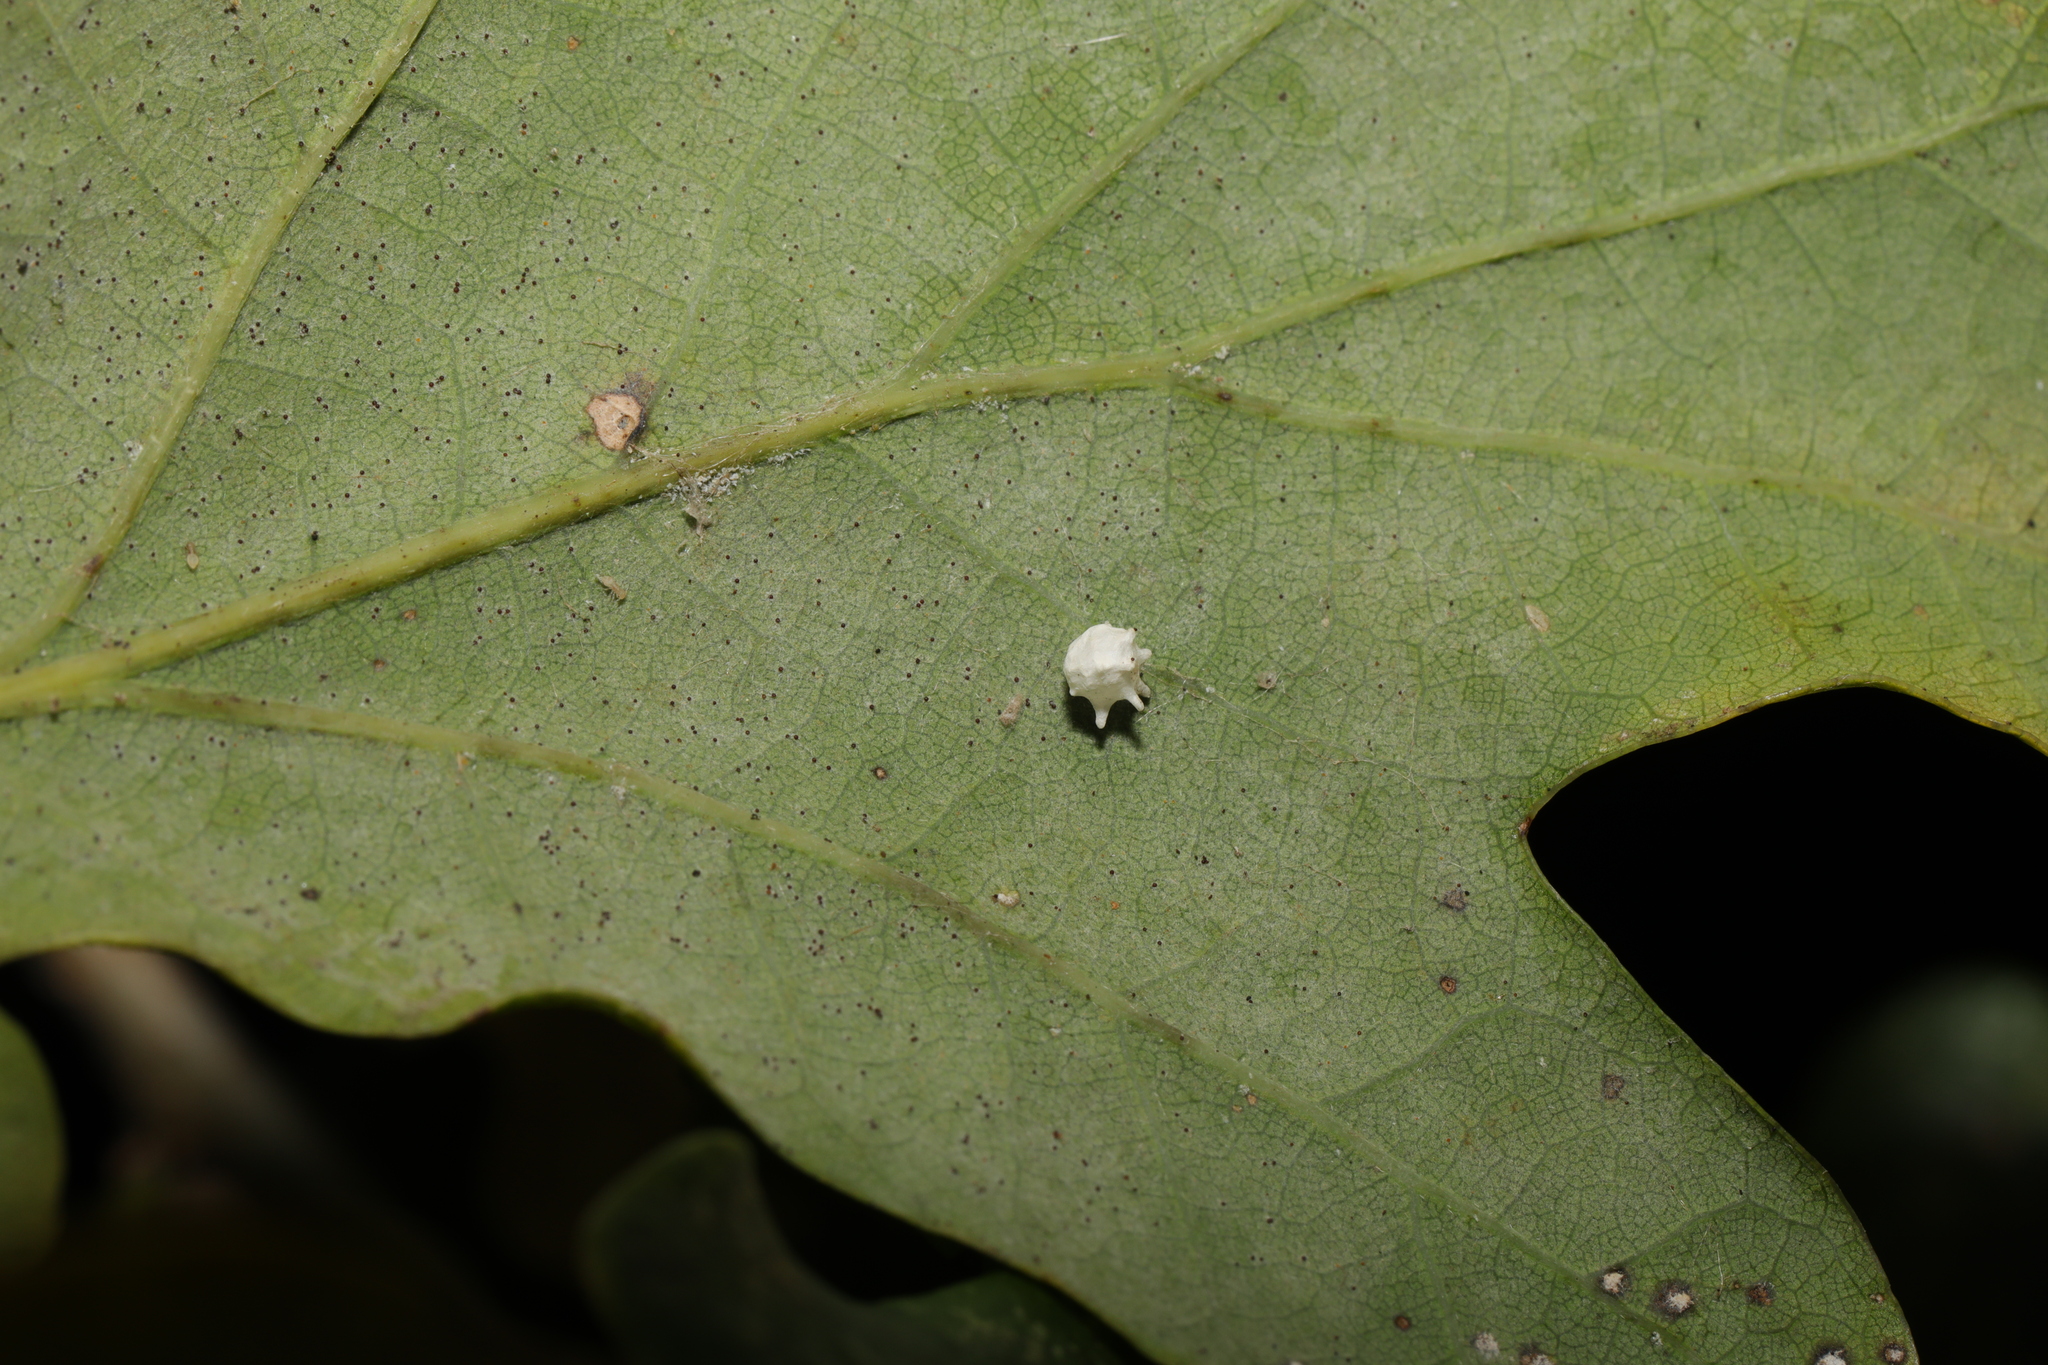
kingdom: Animalia
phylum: Arthropoda
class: Arachnida
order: Araneae
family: Theridiidae
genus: Paidiscura
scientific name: Paidiscura pallens
